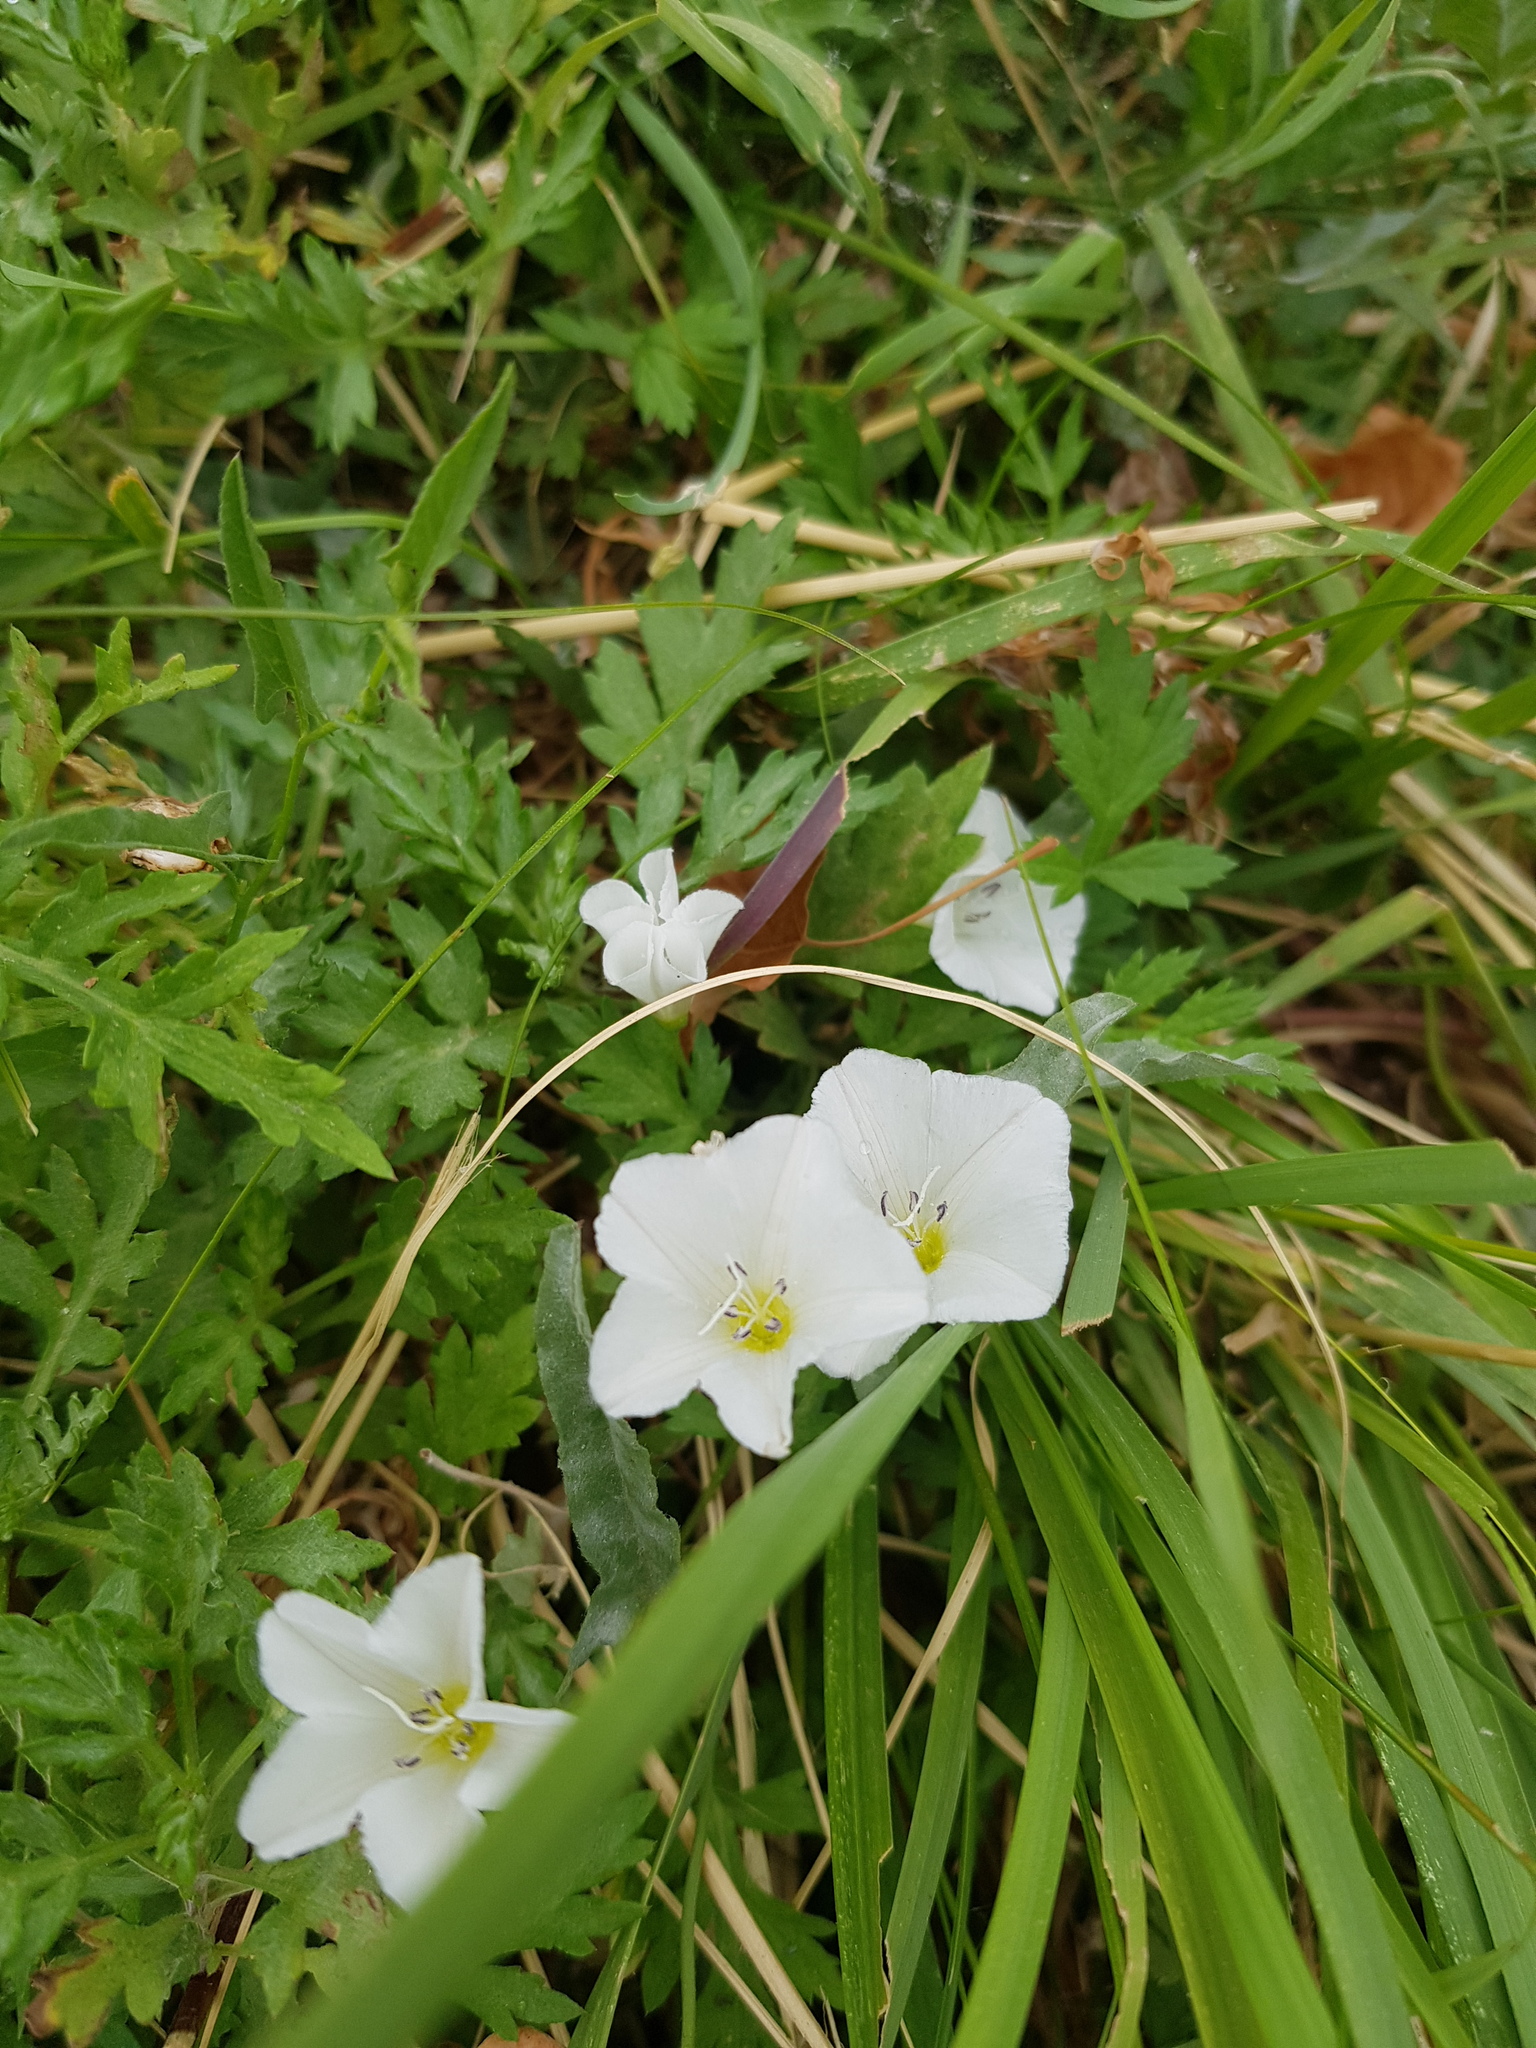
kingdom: Plantae
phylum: Tracheophyta
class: Magnoliopsida
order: Solanales
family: Convolvulaceae
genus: Convolvulus
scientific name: Convolvulus arvensis
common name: Field bindweed
